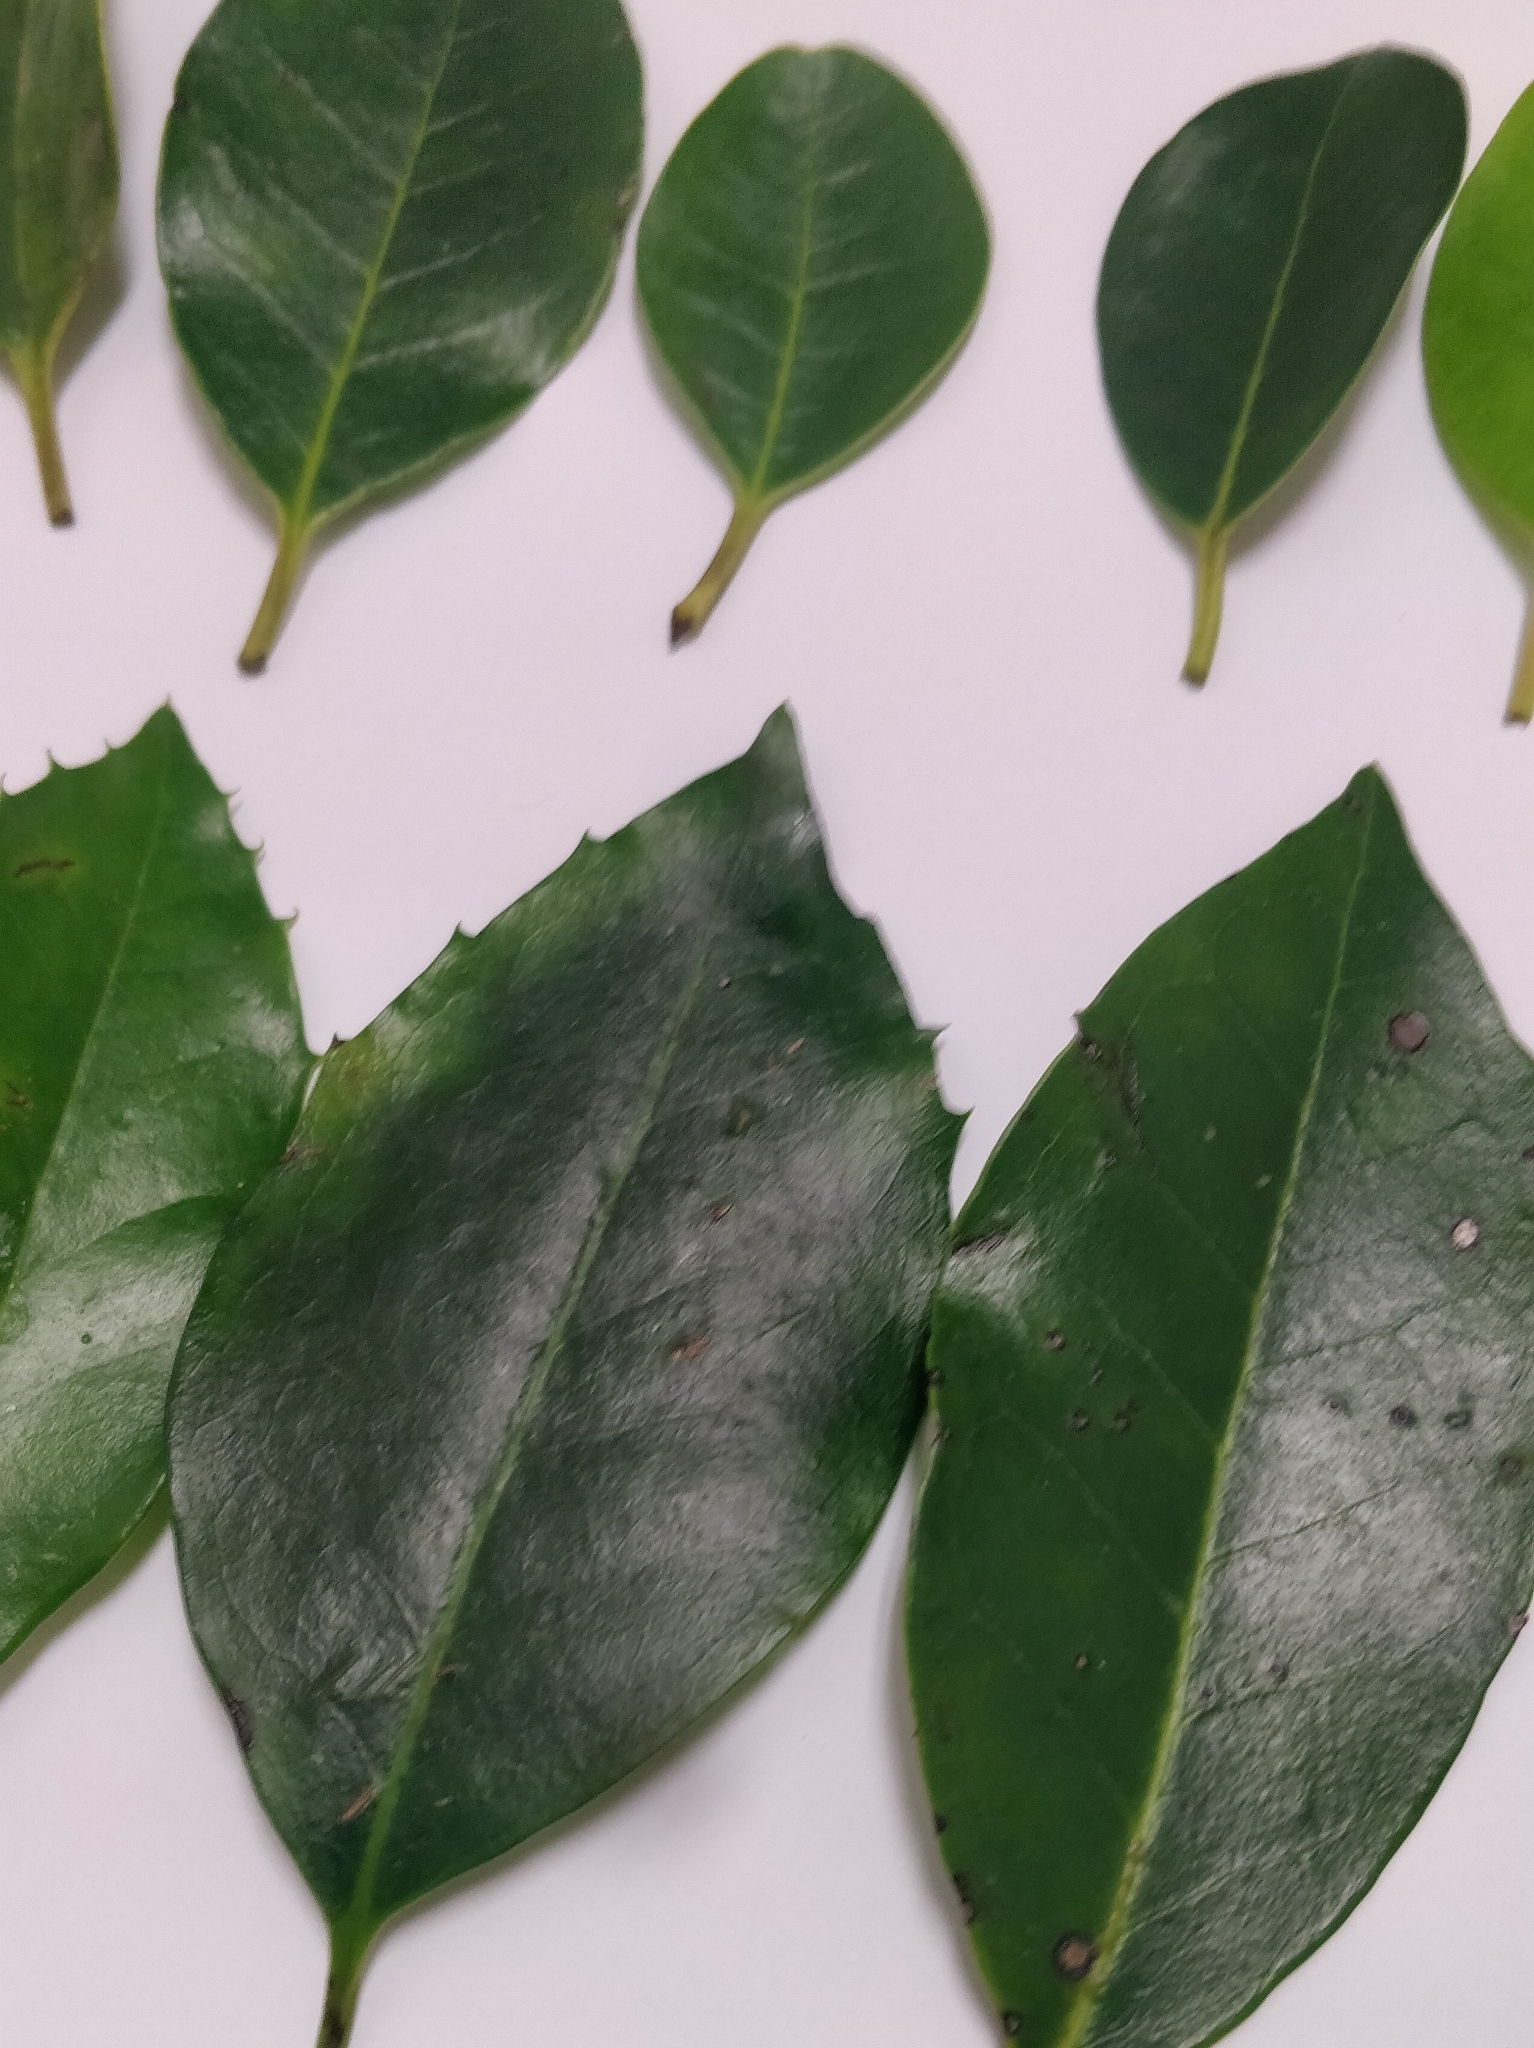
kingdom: Plantae
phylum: Tracheophyta
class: Magnoliopsida
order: Aquifoliales
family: Aquifoliaceae
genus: Ilex
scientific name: Ilex canariensis
